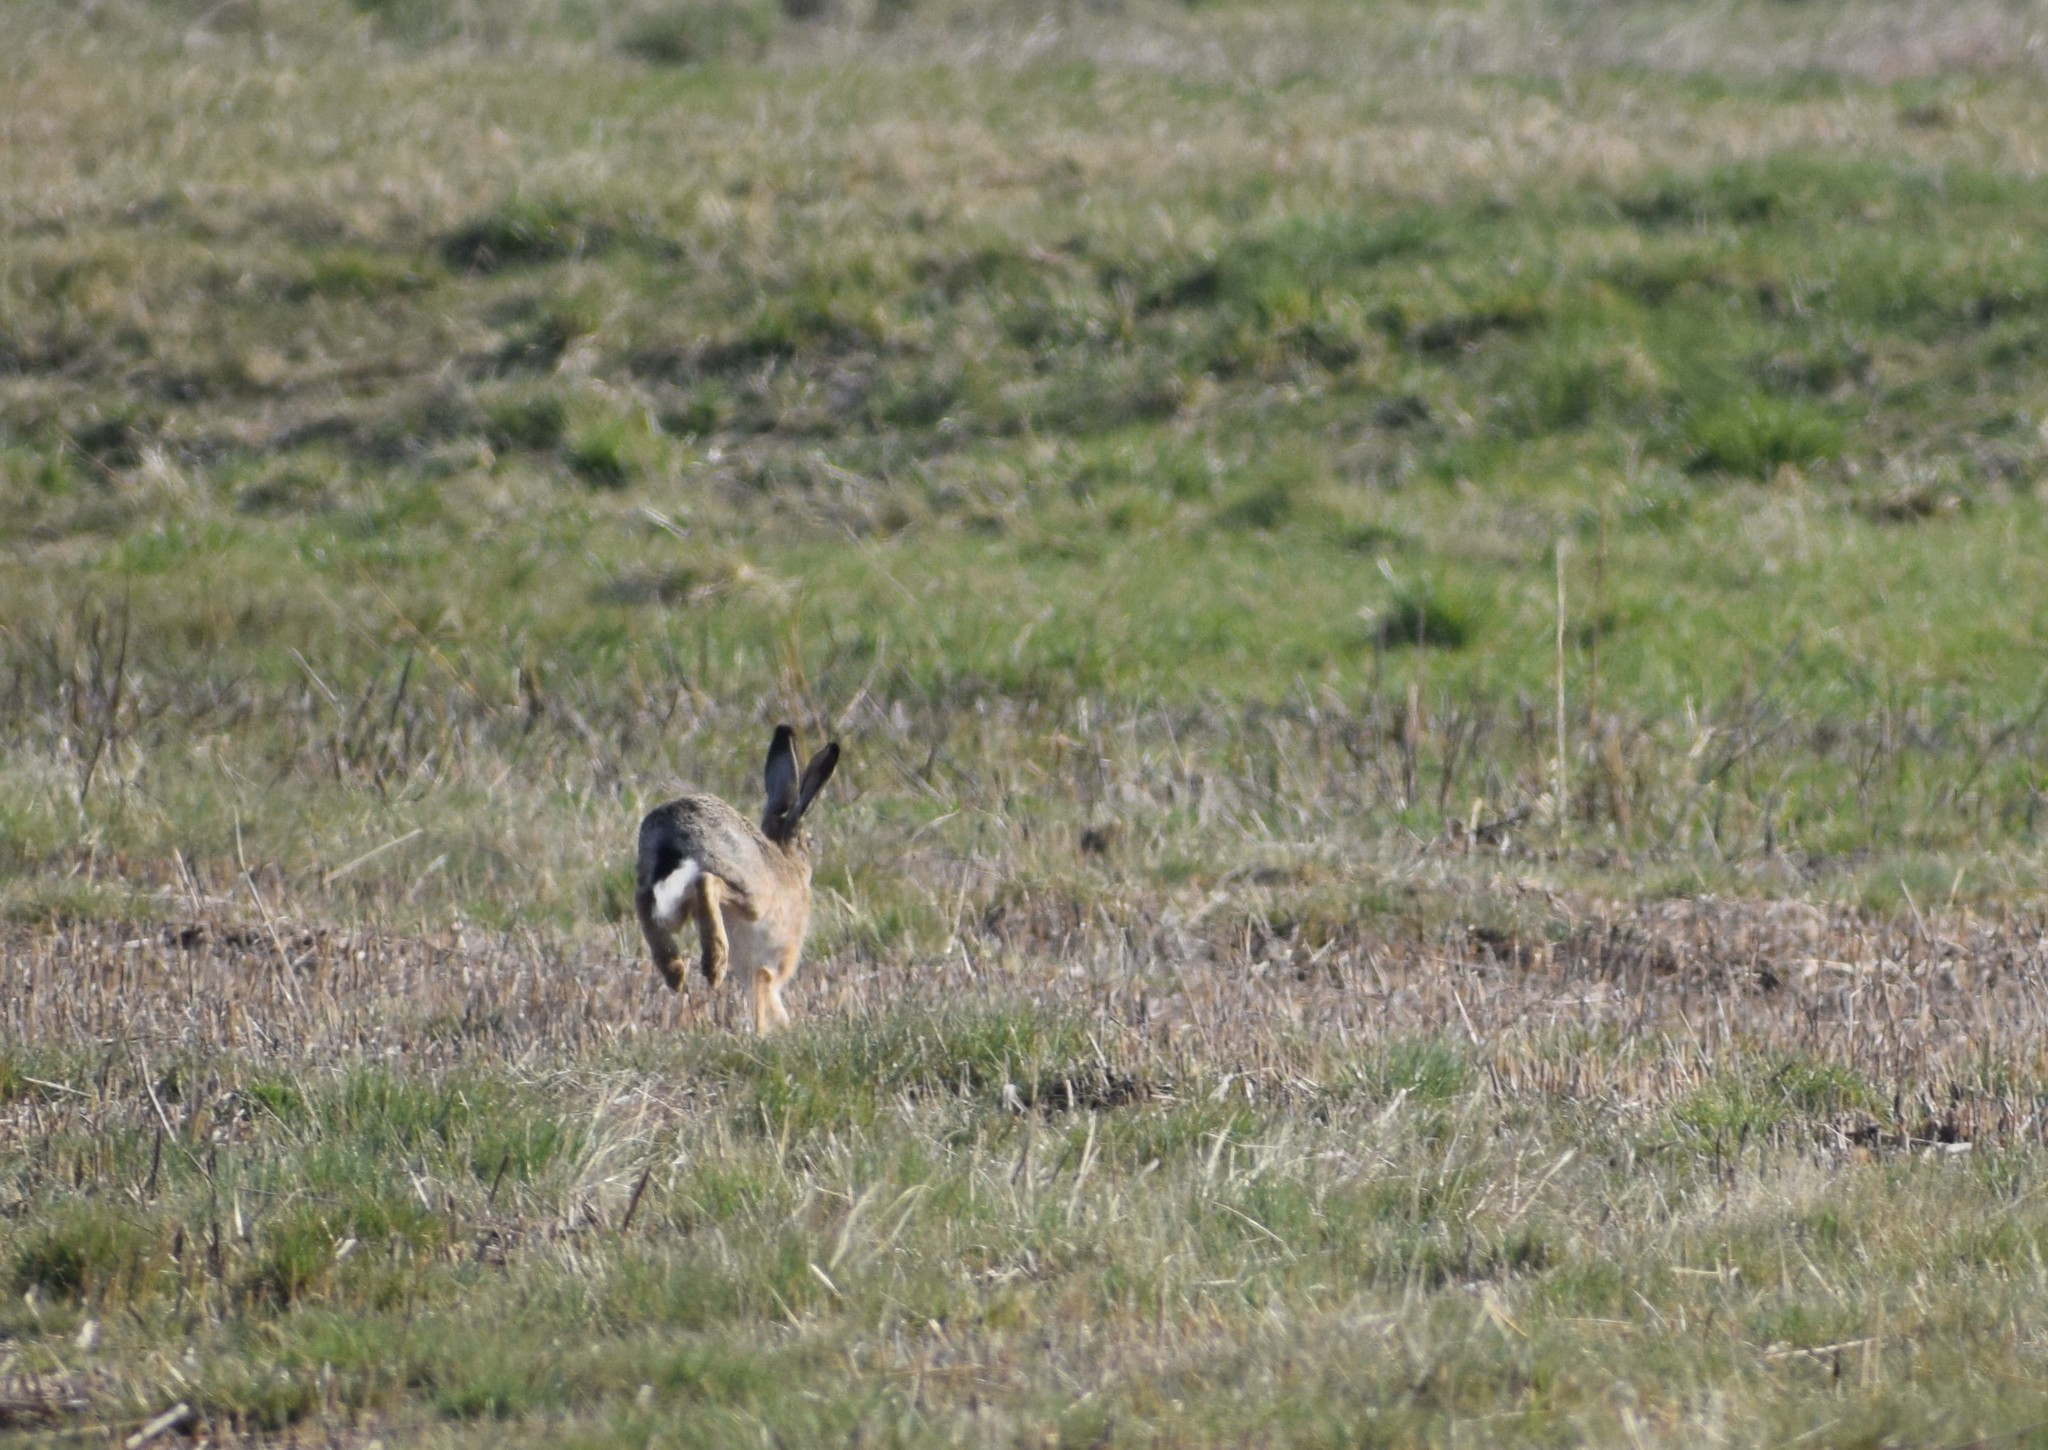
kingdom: Animalia
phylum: Chordata
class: Mammalia
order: Lagomorpha
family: Leporidae
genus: Lepus
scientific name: Lepus europaeus
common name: European hare
